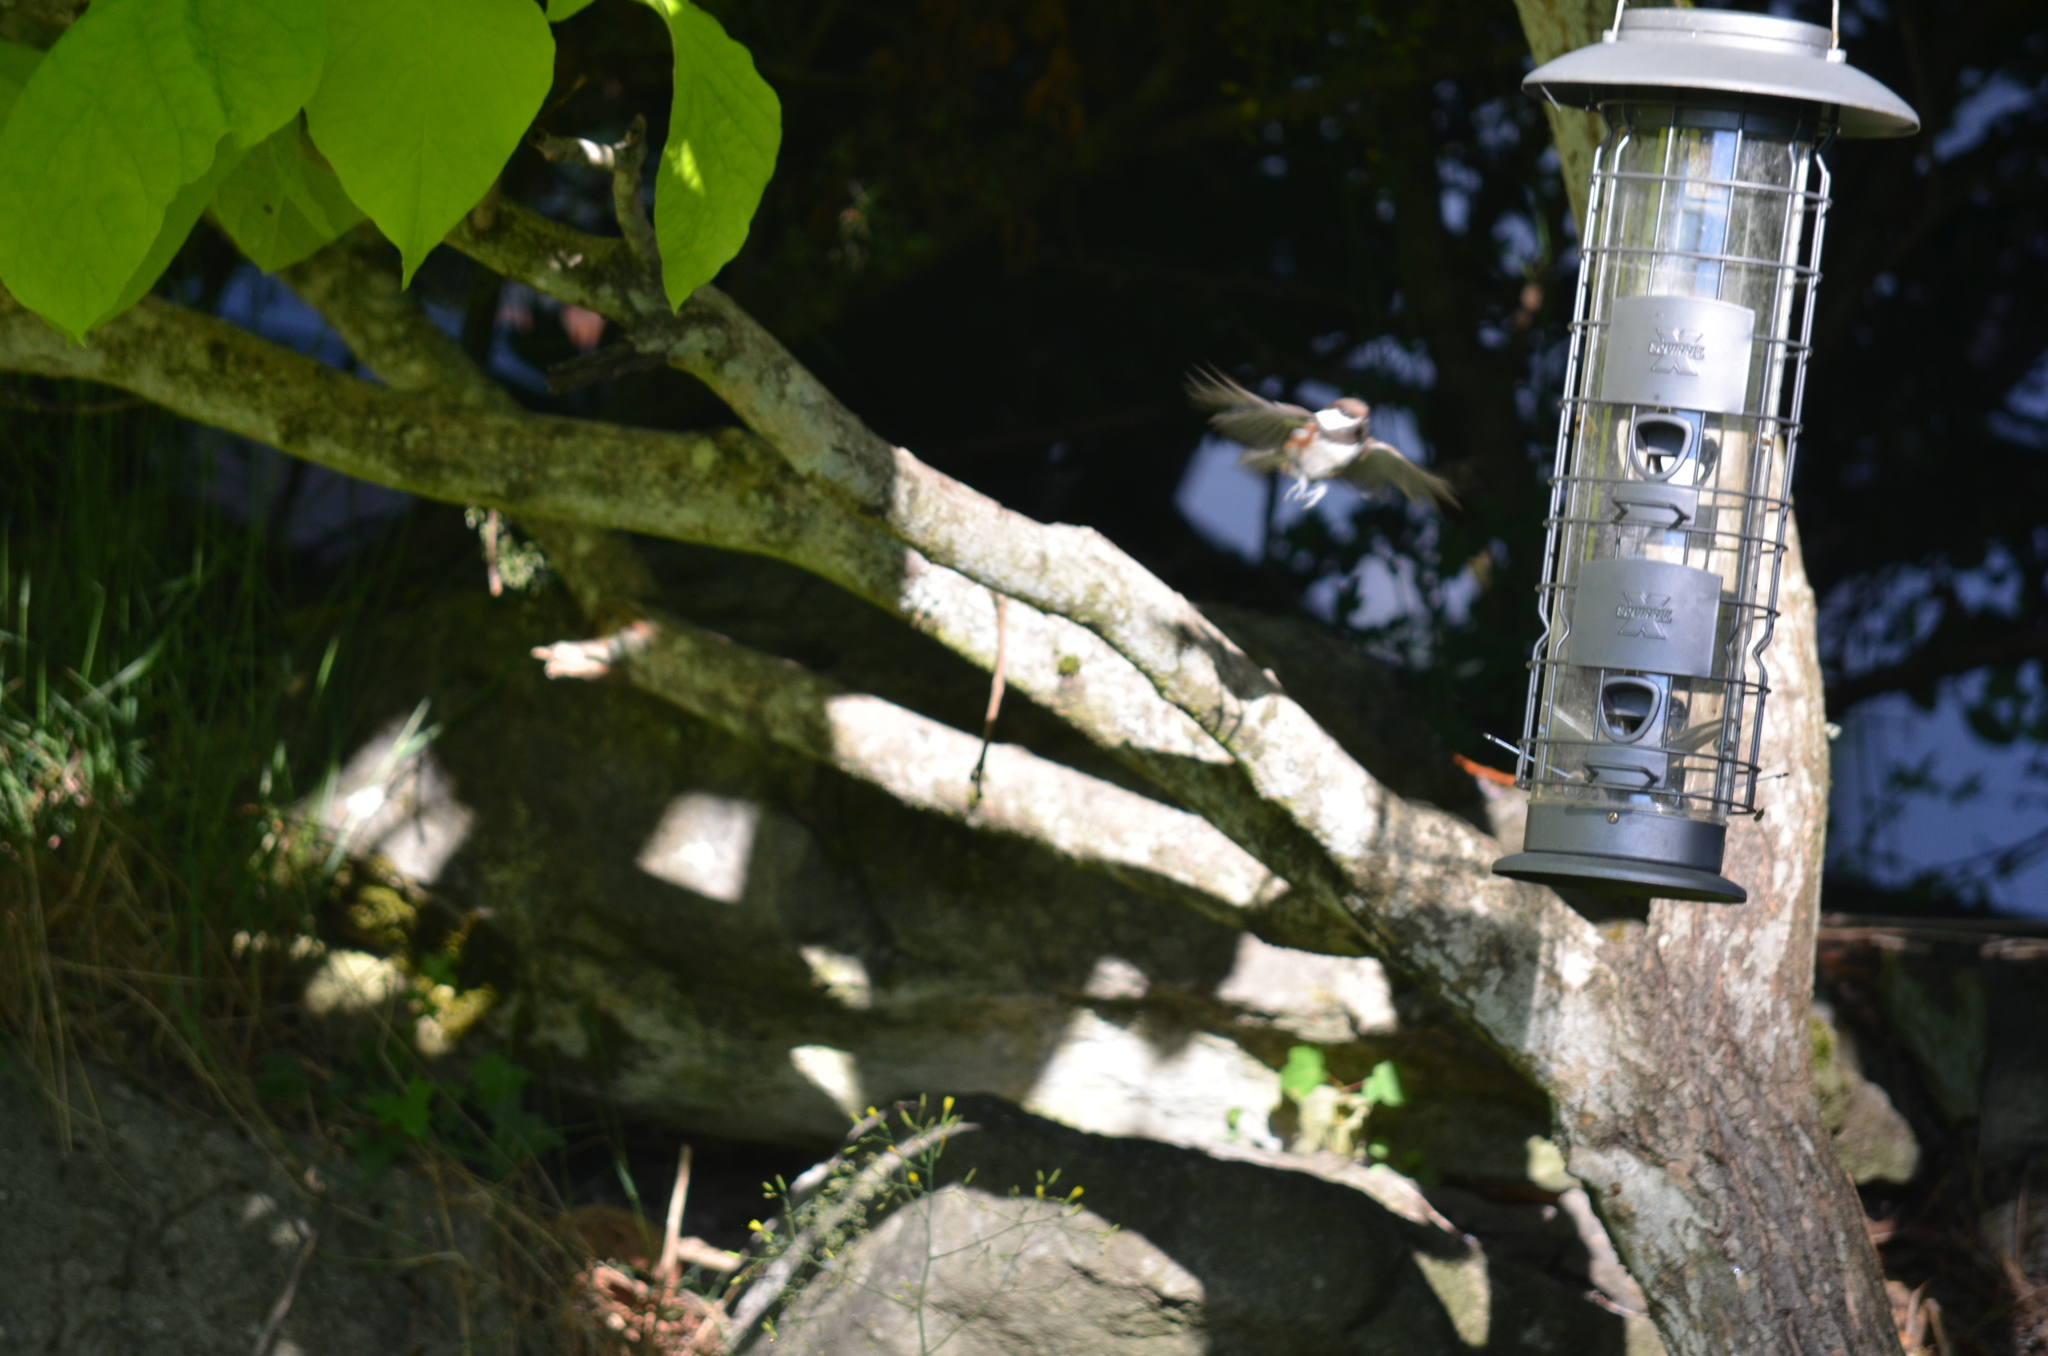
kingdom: Animalia
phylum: Chordata
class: Aves
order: Passeriformes
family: Paridae
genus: Poecile
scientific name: Poecile rufescens
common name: Chestnut-backed chickadee
